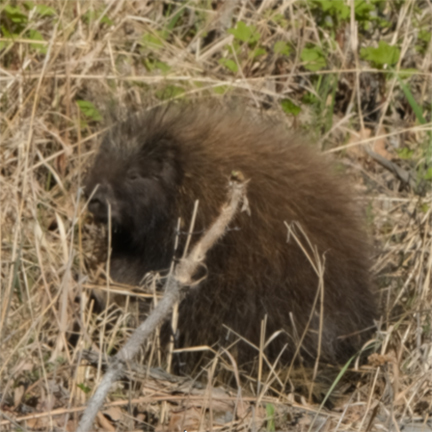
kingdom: Animalia
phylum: Chordata
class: Mammalia
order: Rodentia
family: Erethizontidae
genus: Erethizon
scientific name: Erethizon dorsatus
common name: North american porcupine
